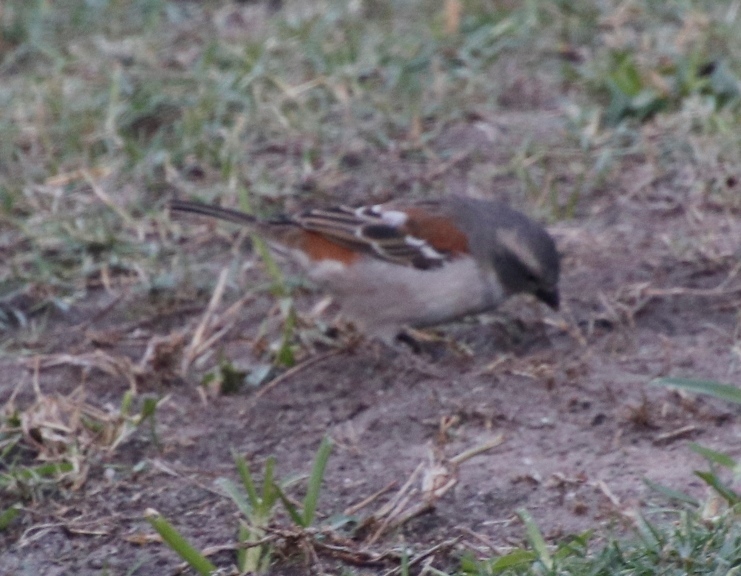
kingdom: Animalia
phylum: Chordata
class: Aves
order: Passeriformes
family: Passeridae
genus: Passer
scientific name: Passer melanurus
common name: Cape sparrow
